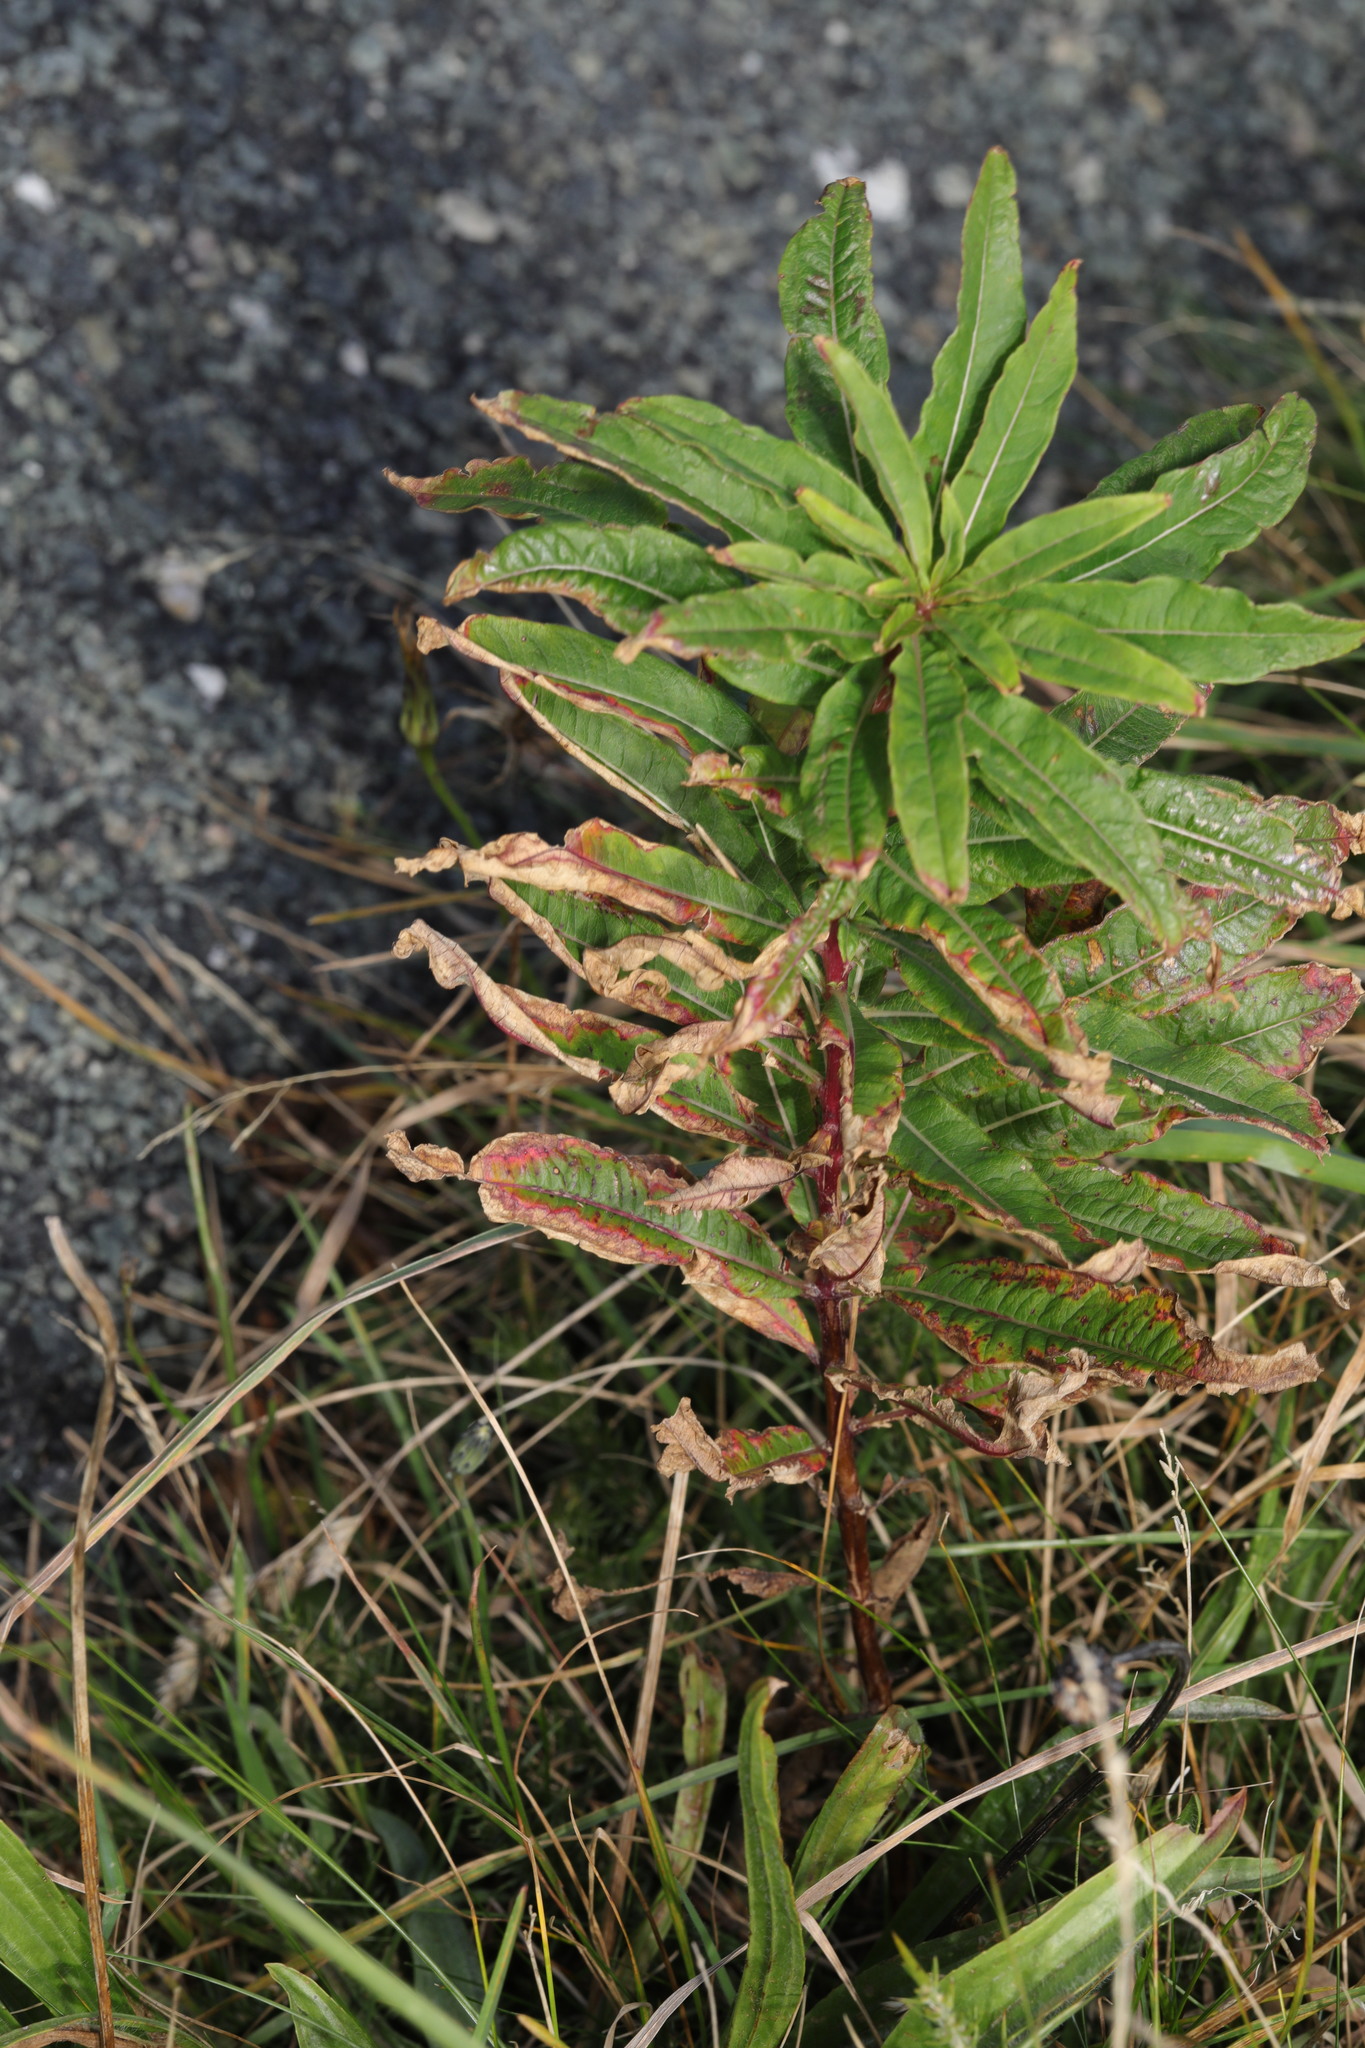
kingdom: Plantae
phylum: Tracheophyta
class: Magnoliopsida
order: Myrtales
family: Onagraceae
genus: Chamaenerion
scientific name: Chamaenerion angustifolium
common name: Fireweed
